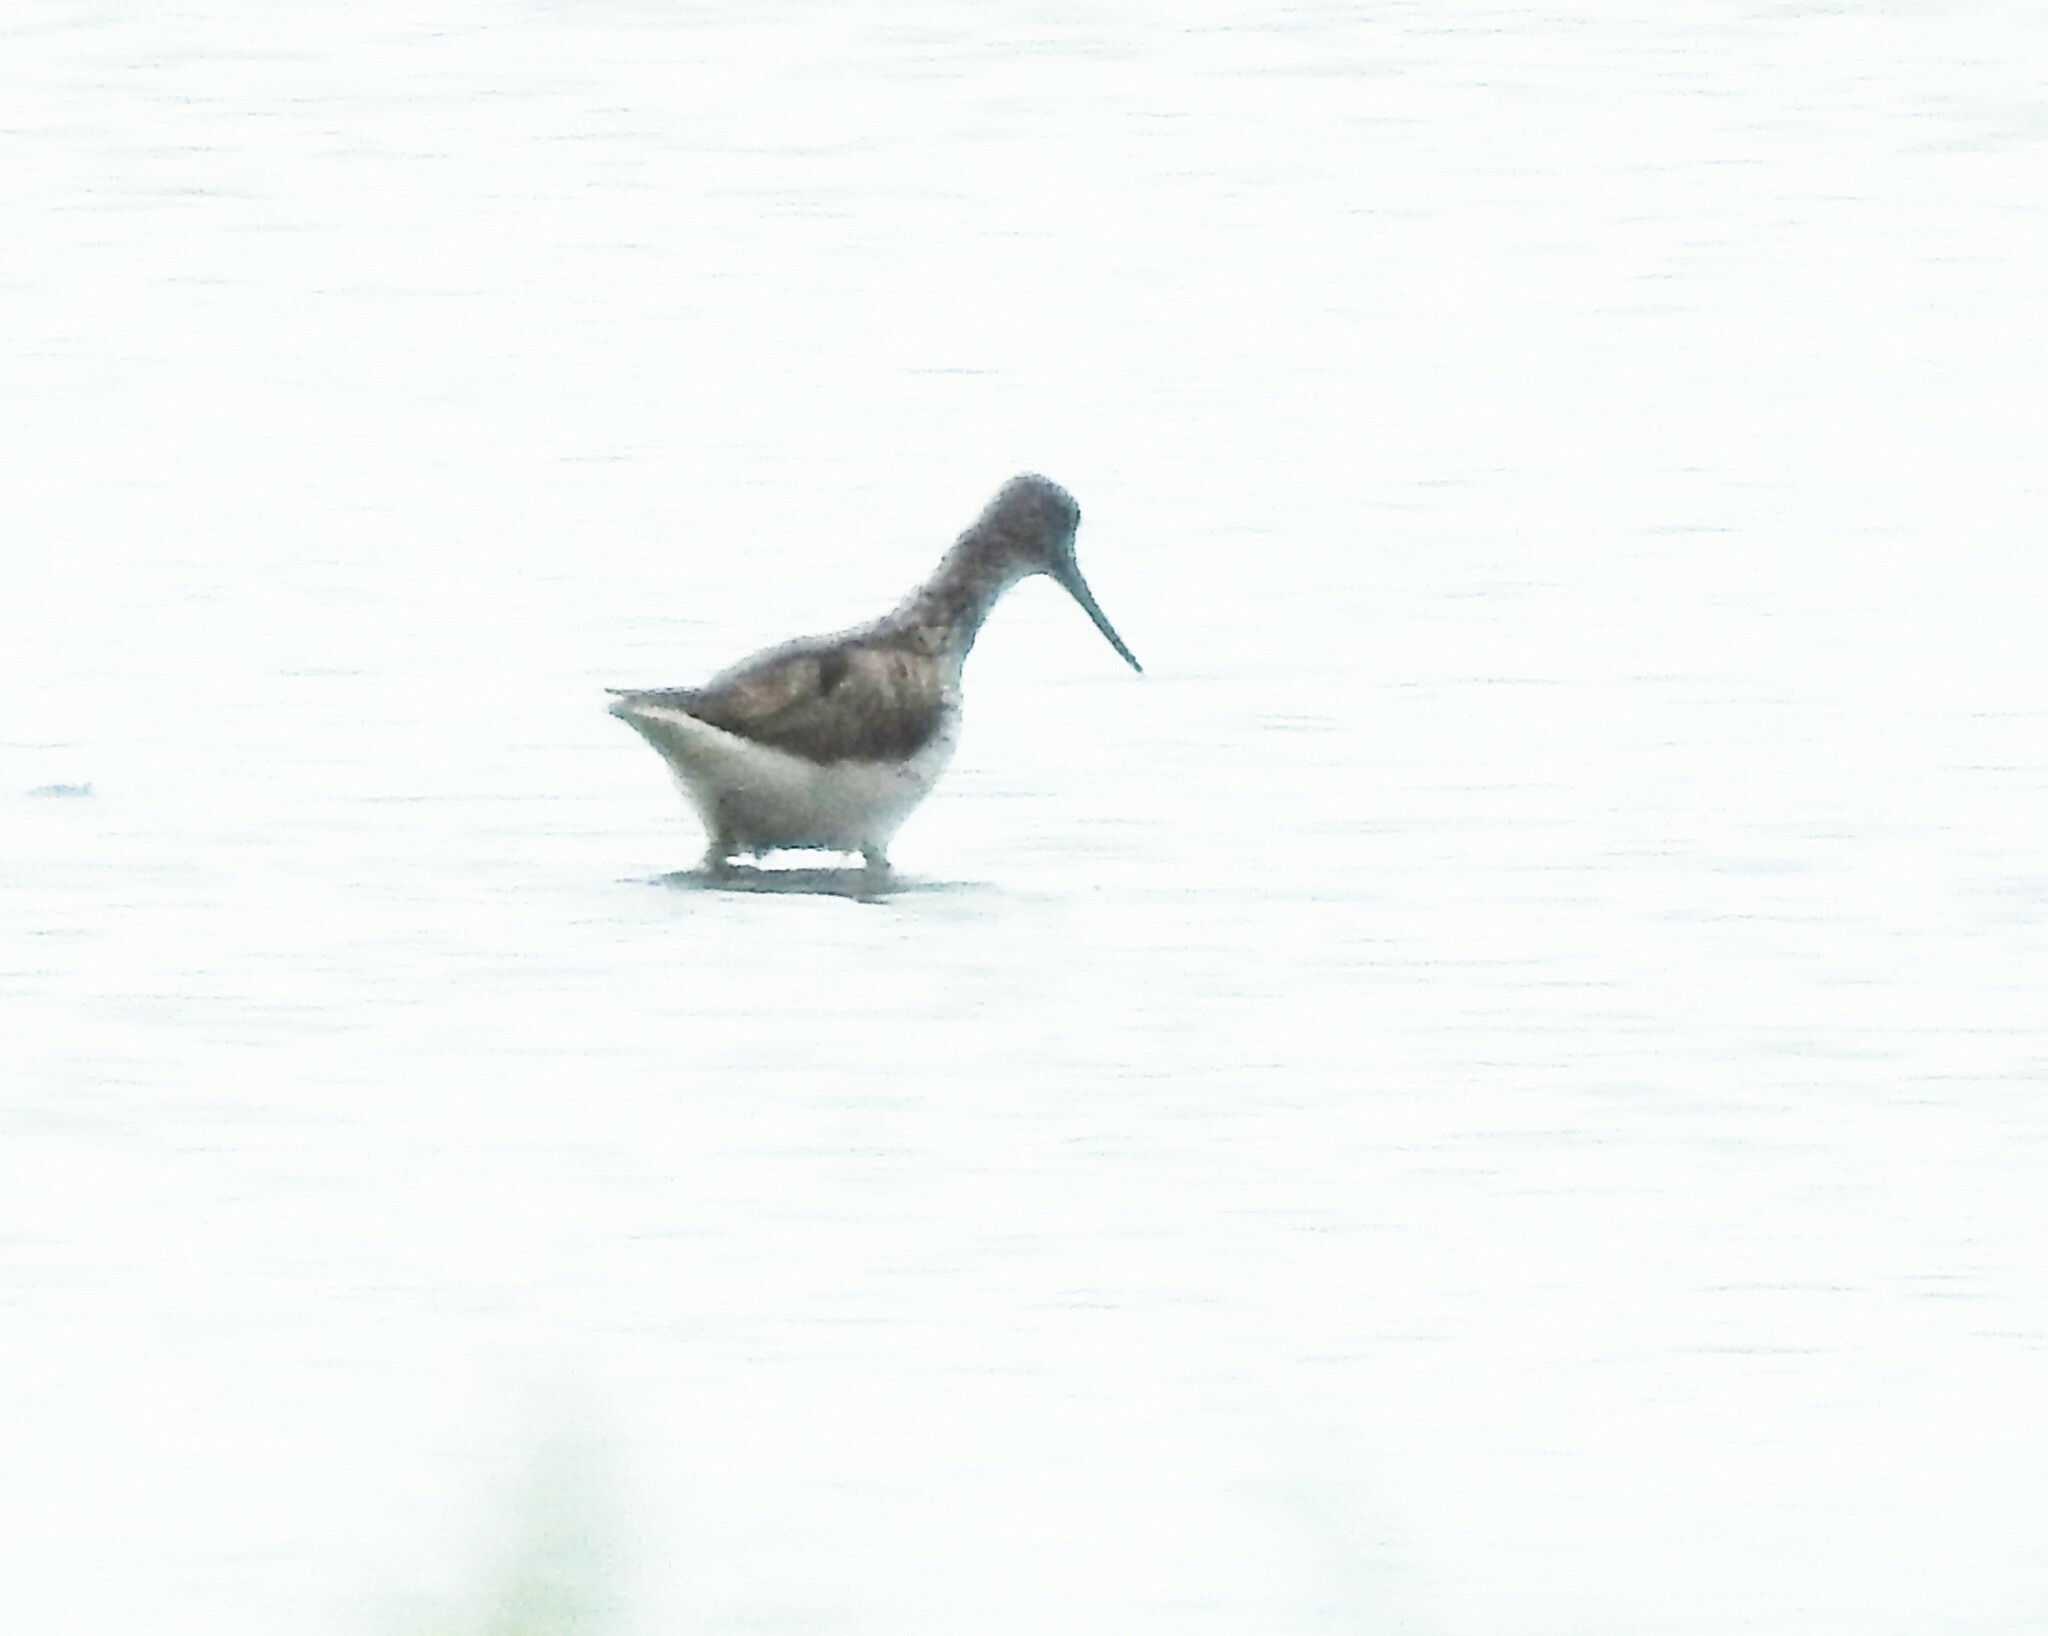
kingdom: Animalia
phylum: Chordata
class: Aves
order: Charadriiformes
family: Scolopacidae
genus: Tringa
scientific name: Tringa nebularia
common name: Common greenshank
